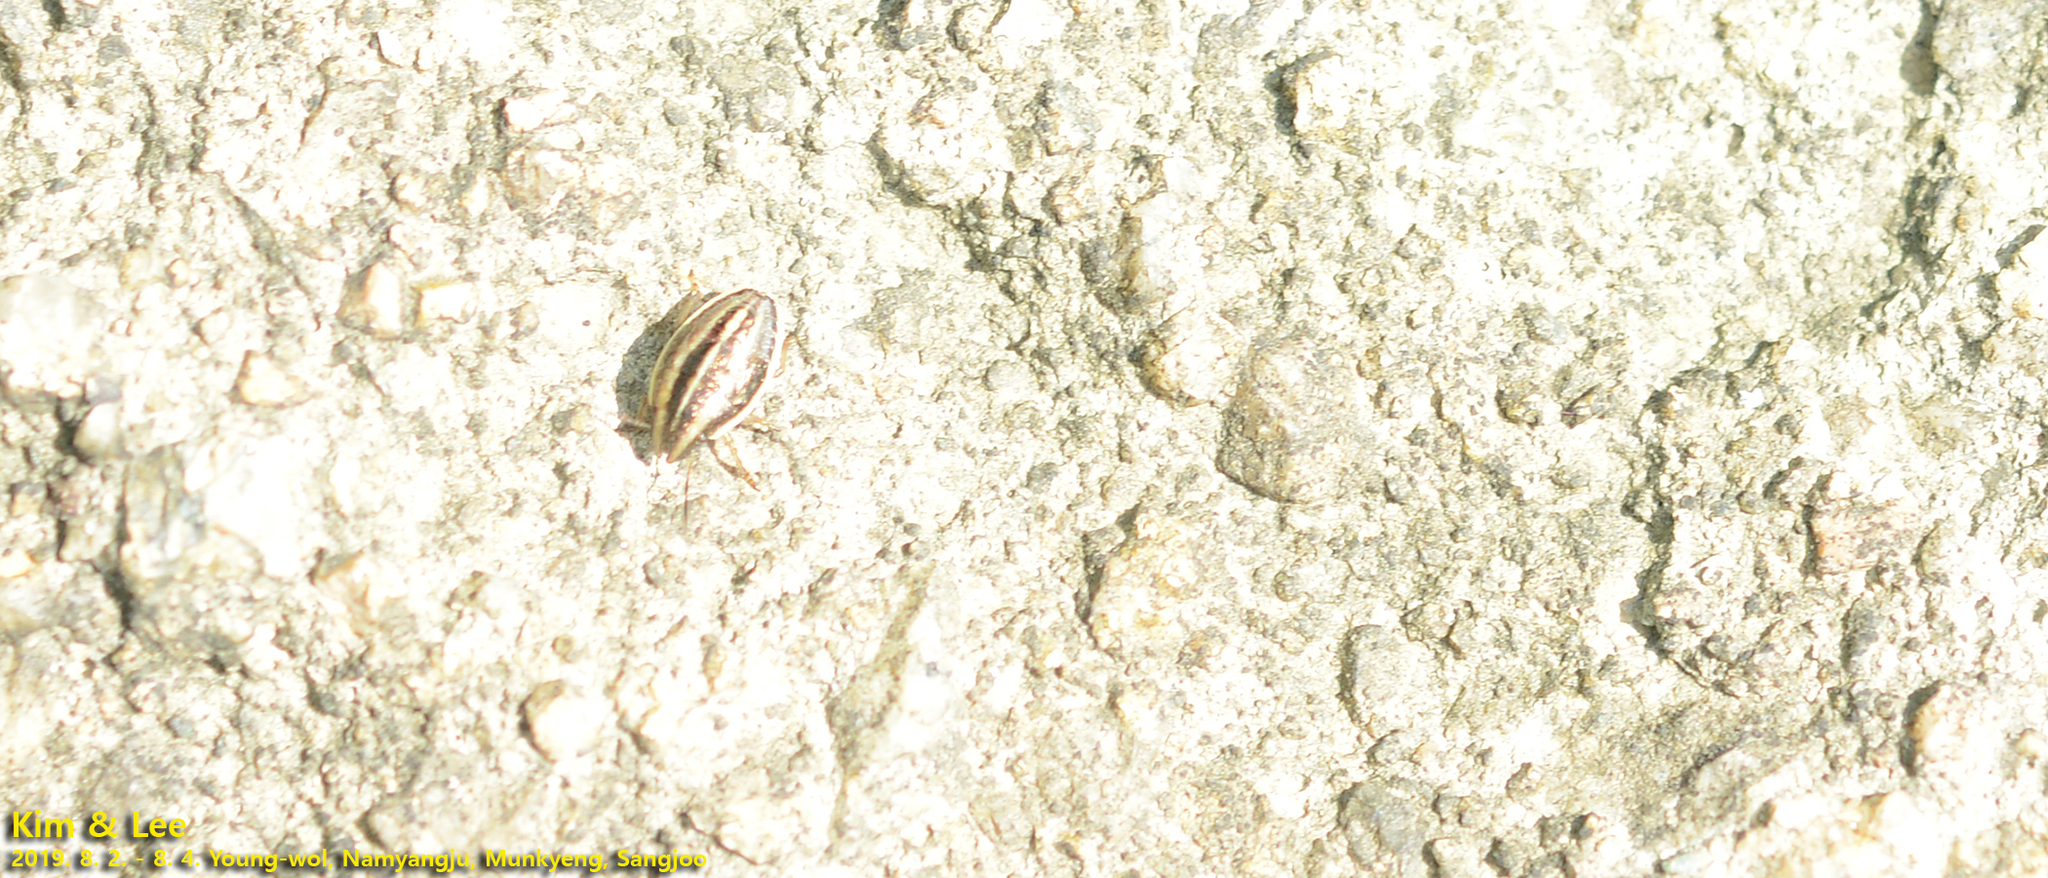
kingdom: Animalia
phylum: Arthropoda
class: Insecta
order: Hemiptera
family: Pentatomidae
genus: Aelia
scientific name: Aelia
